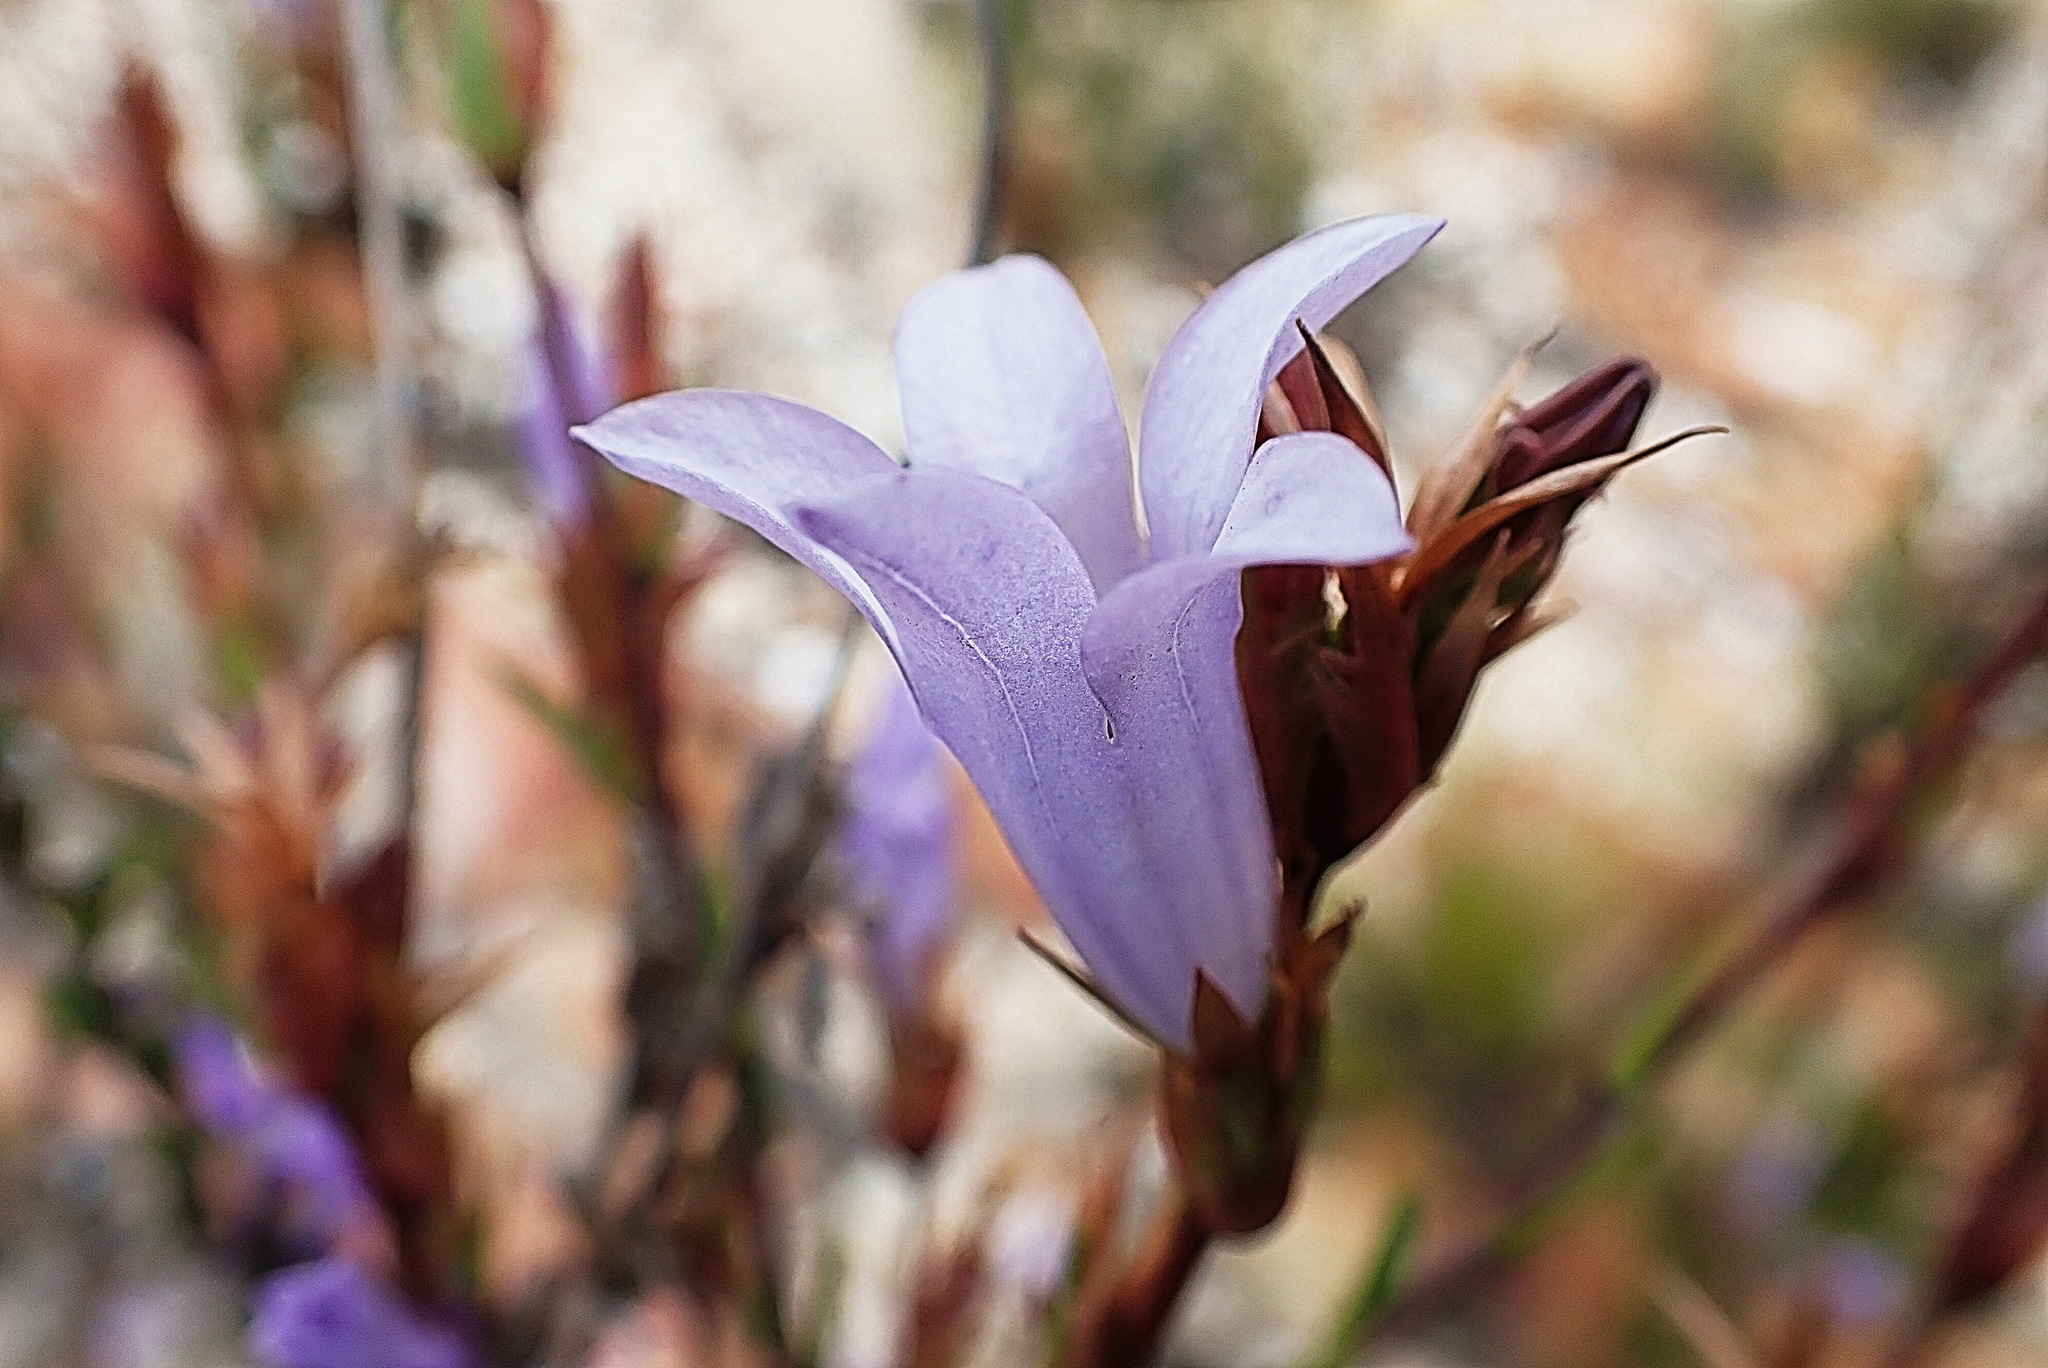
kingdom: Plantae
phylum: Tracheophyta
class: Magnoliopsida
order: Asterales
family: Campanulaceae
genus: Prismatocarpus
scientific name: Prismatocarpus candolleanus
